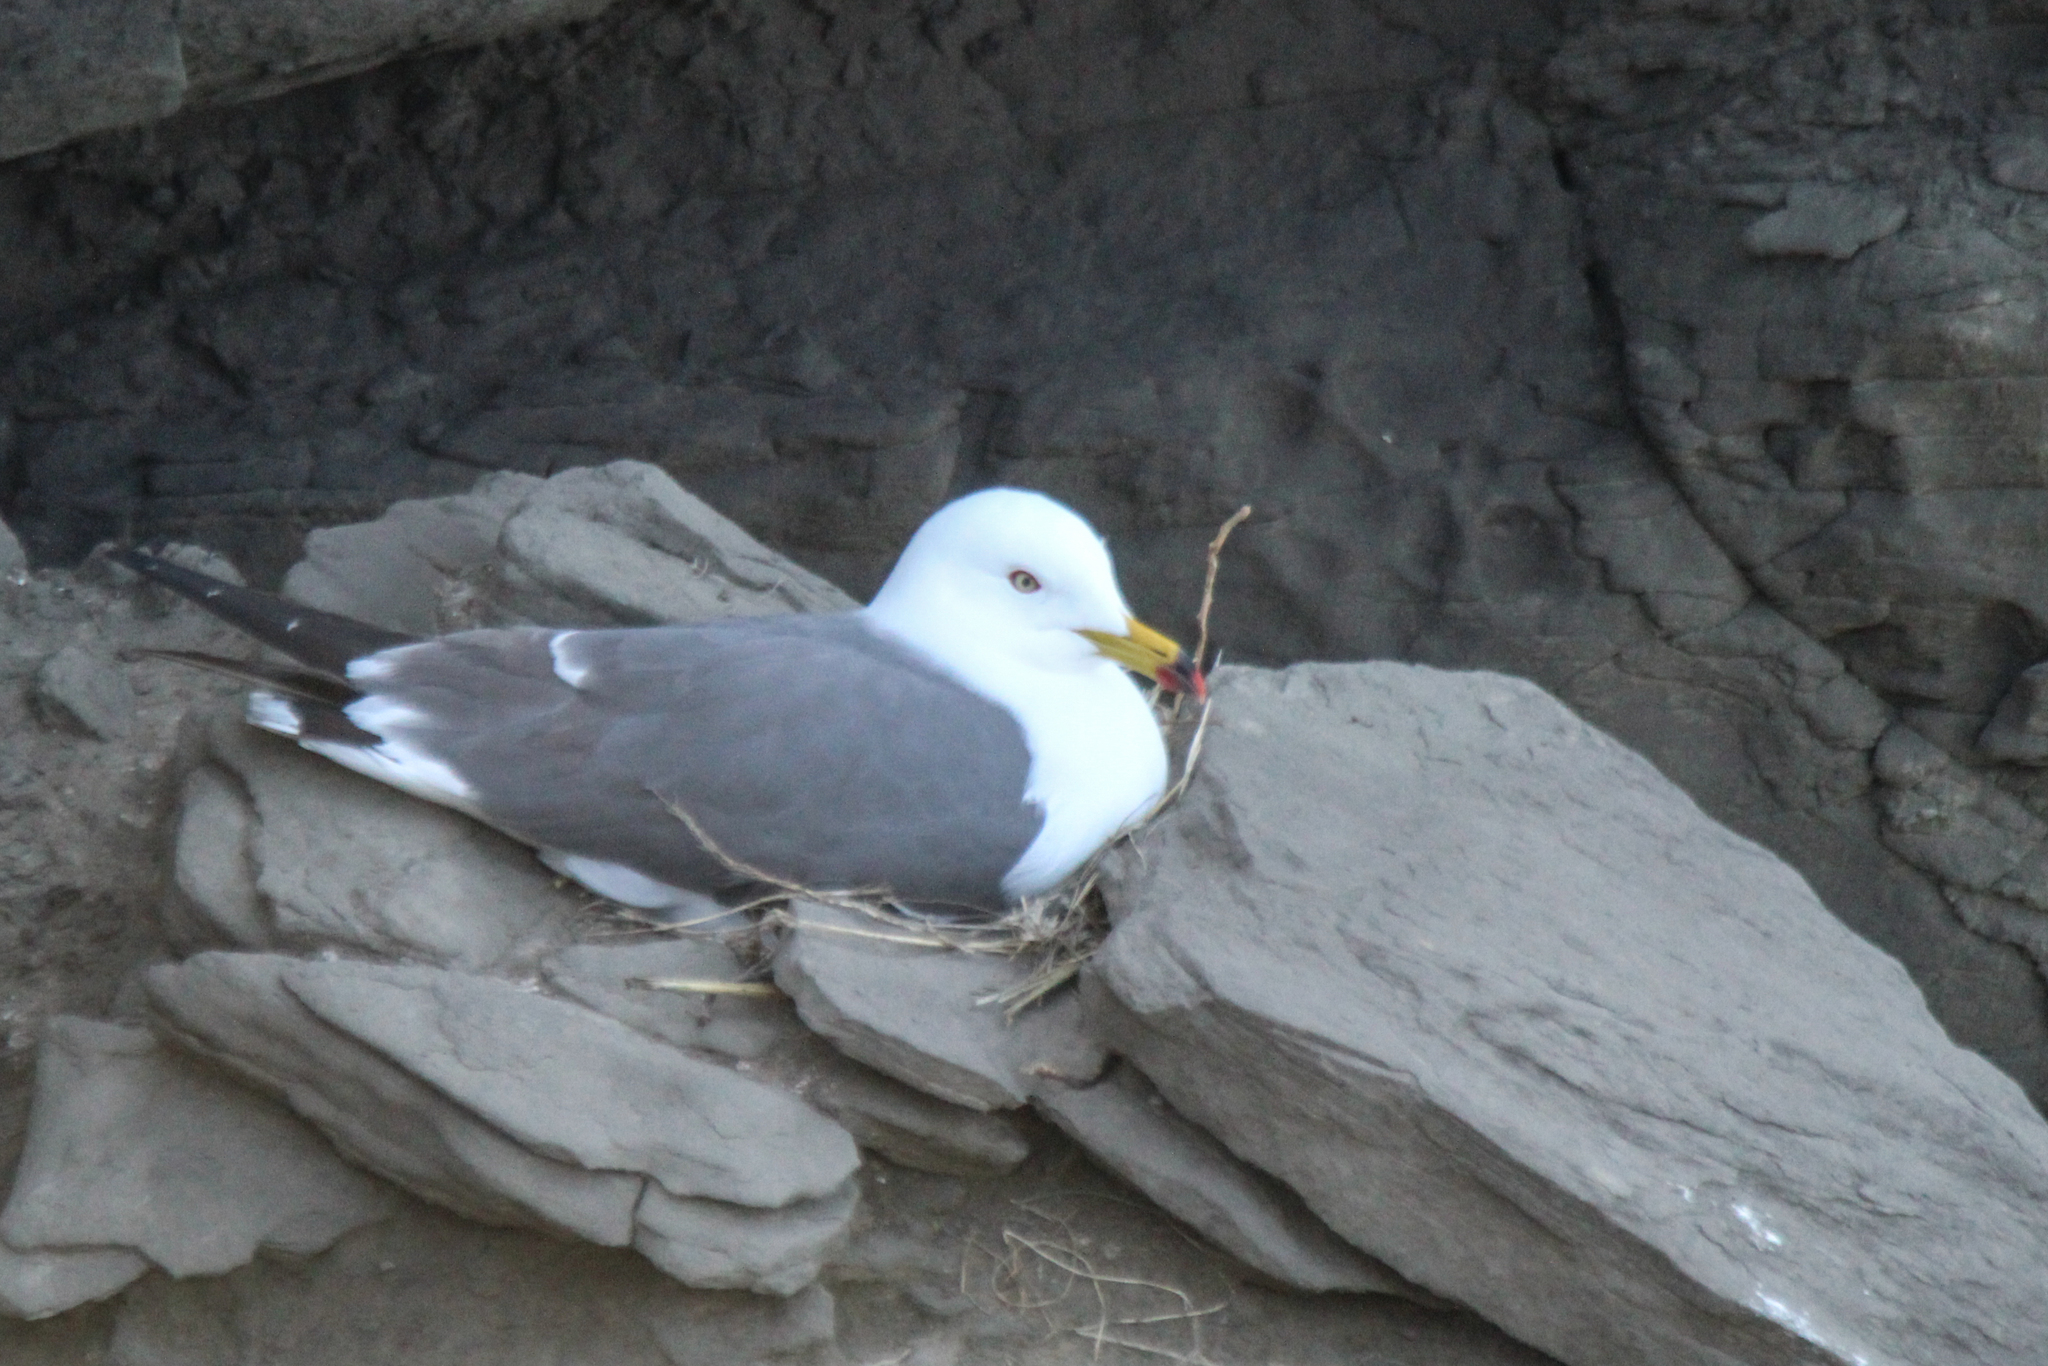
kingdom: Animalia
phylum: Chordata
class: Aves
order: Charadriiformes
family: Laridae
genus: Larus
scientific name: Larus crassirostris
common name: Black-tailed gull
